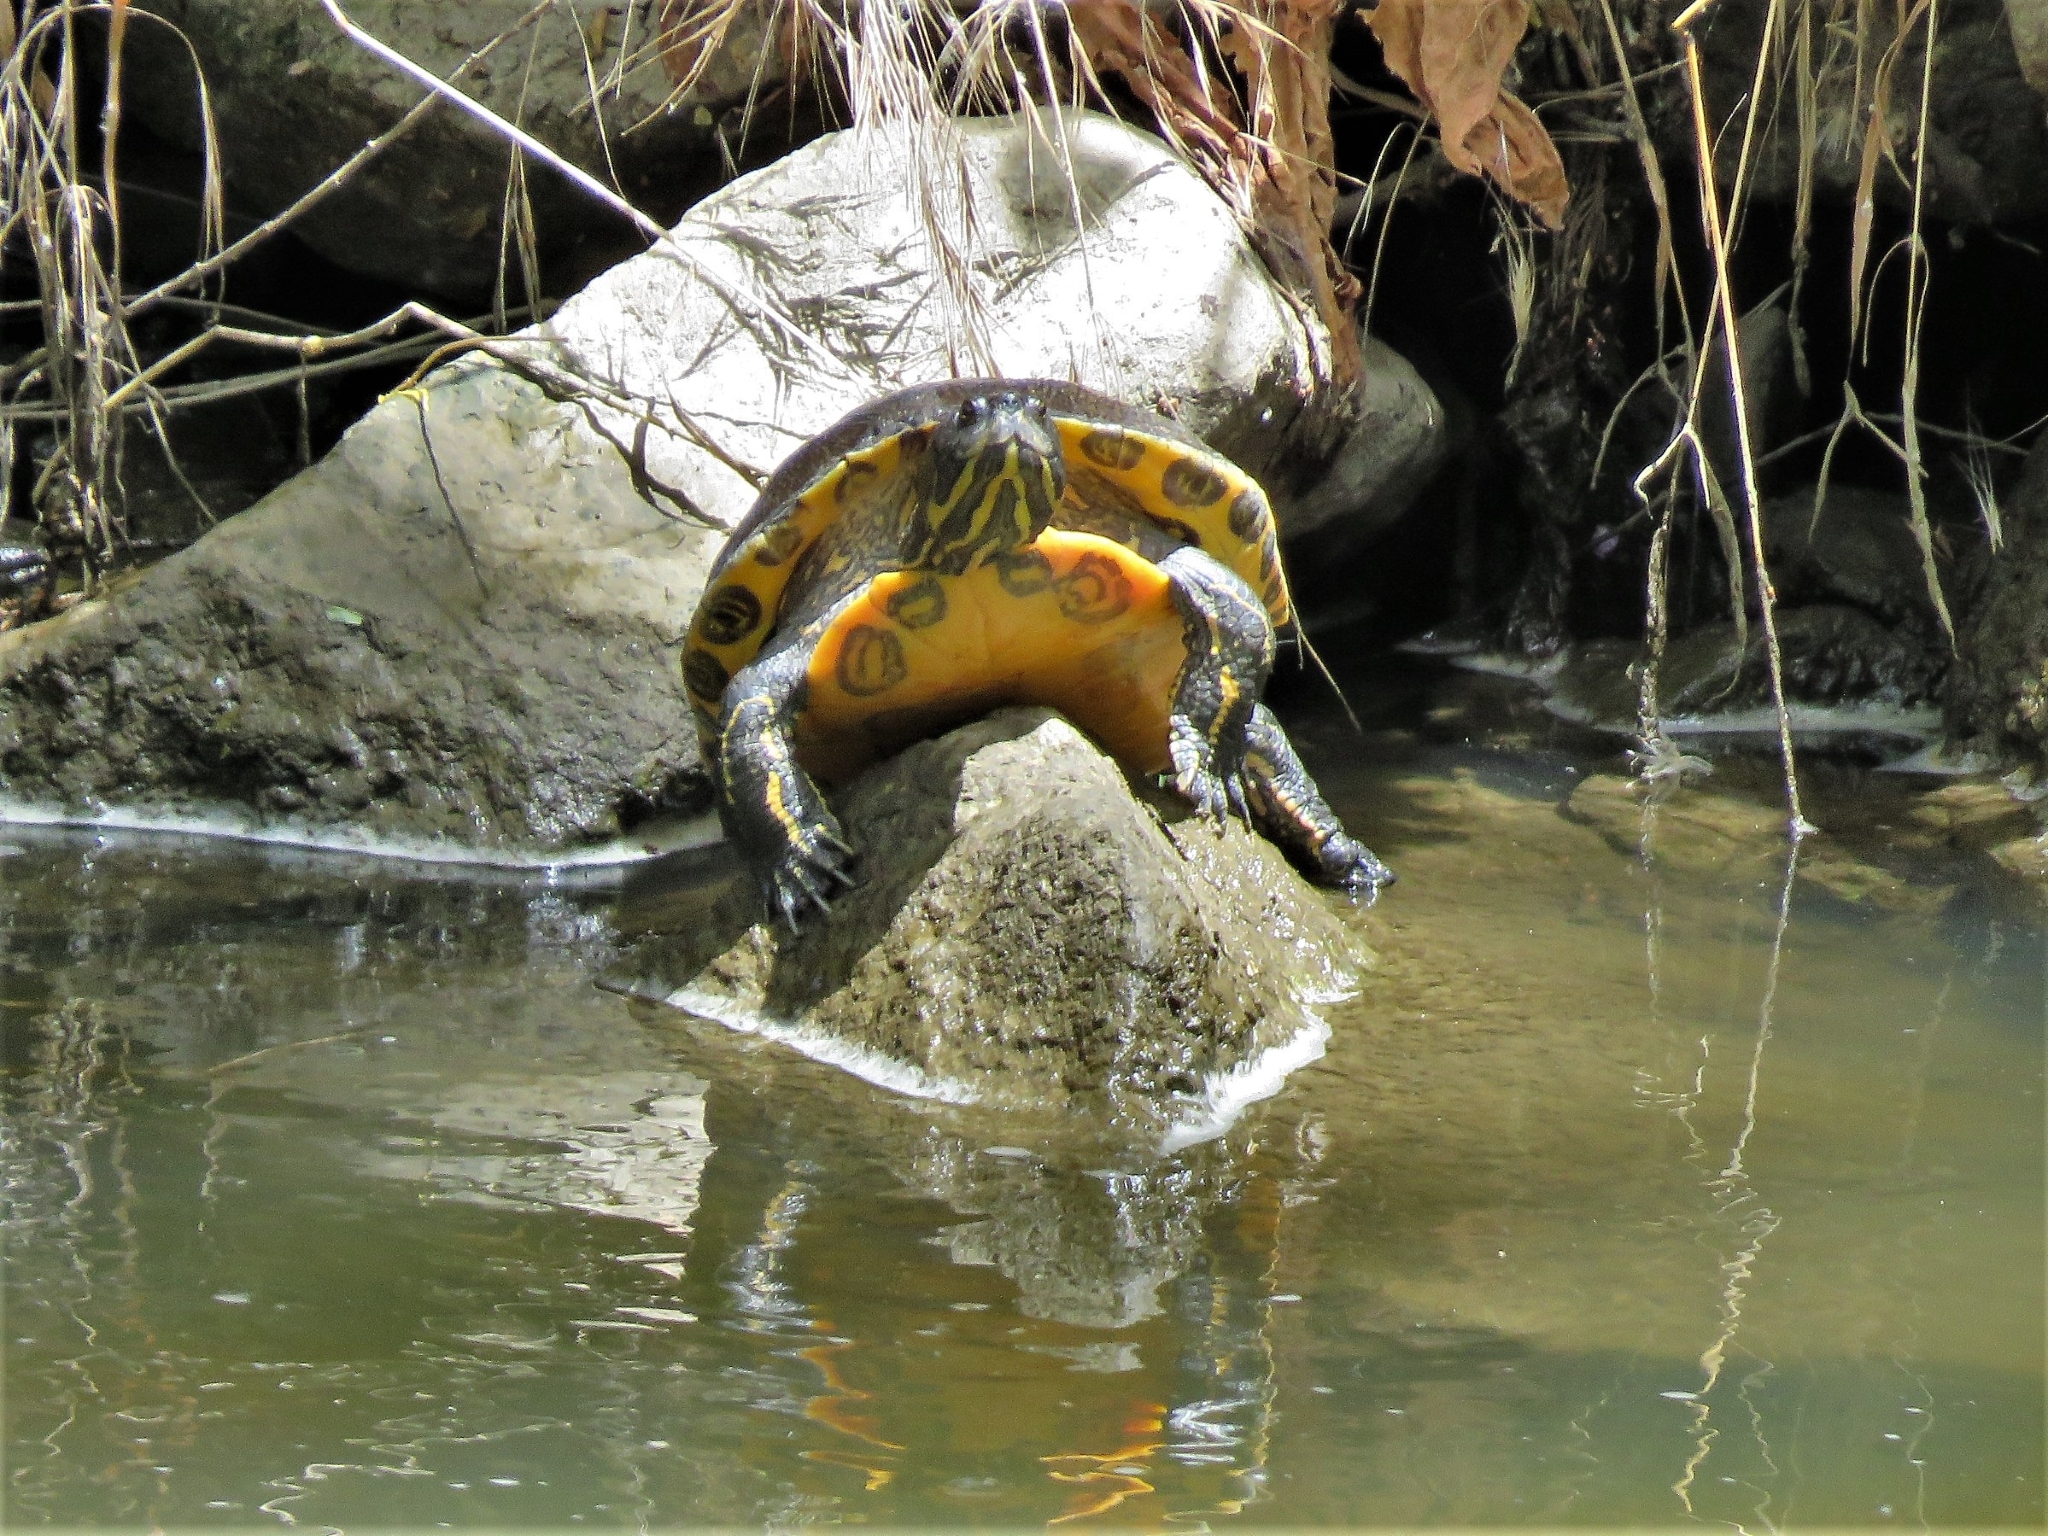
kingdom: Animalia
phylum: Chordata
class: Testudines
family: Emydidae
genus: Trachemys
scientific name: Trachemys scripta
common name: Slider
